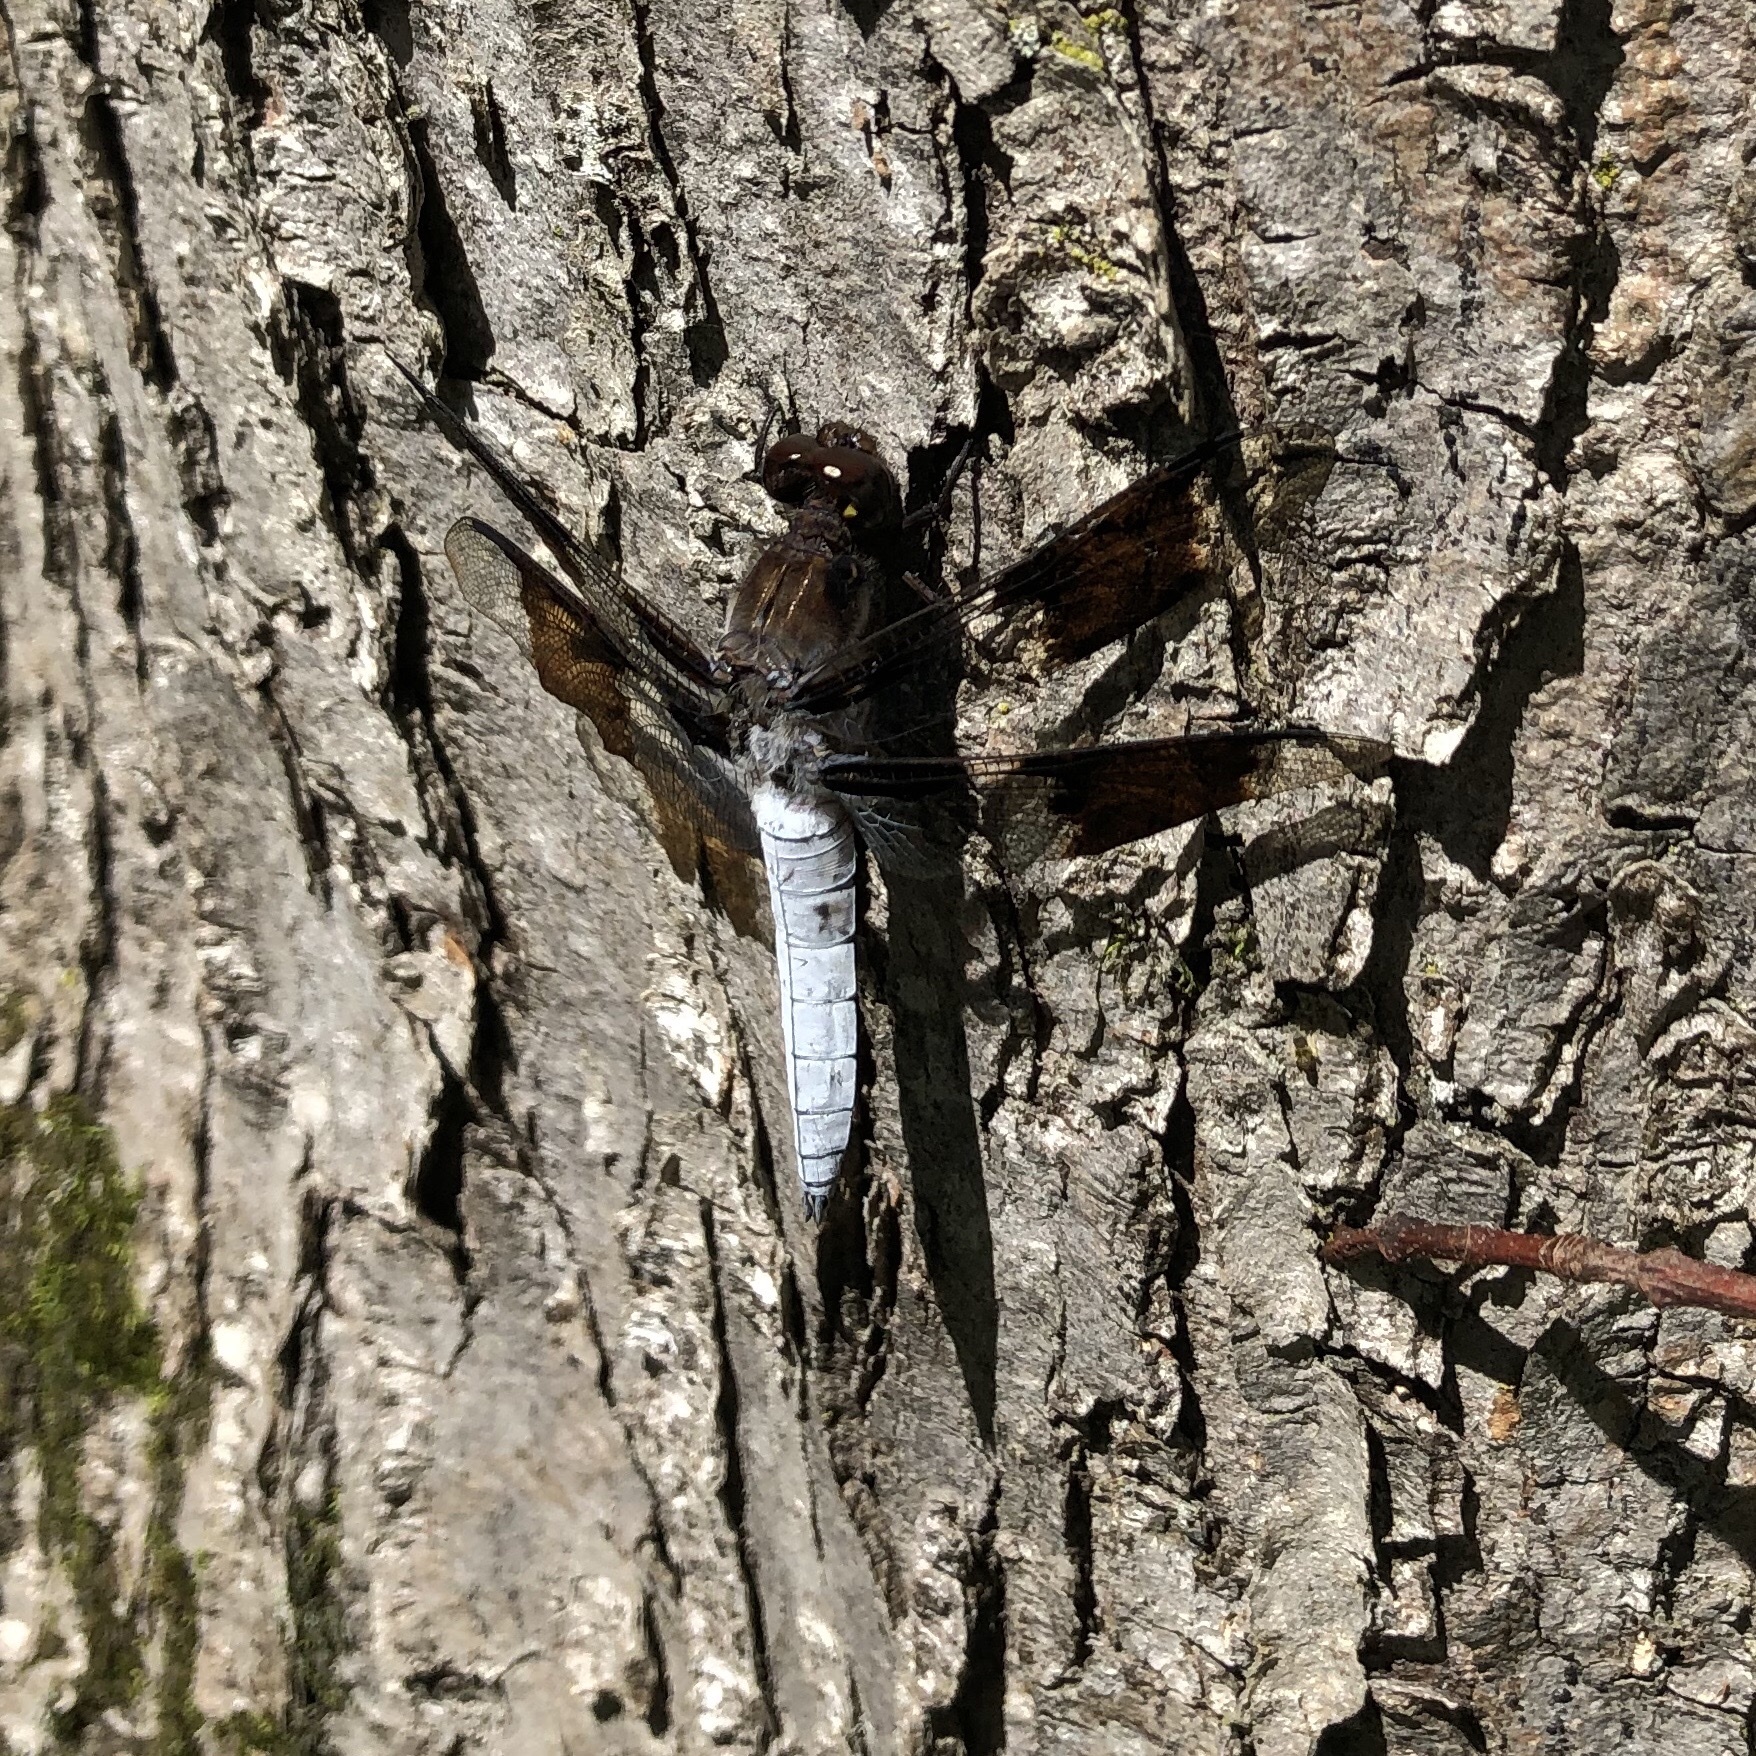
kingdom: Animalia
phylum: Arthropoda
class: Insecta
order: Odonata
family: Libellulidae
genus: Plathemis
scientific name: Plathemis lydia
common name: Common whitetail
